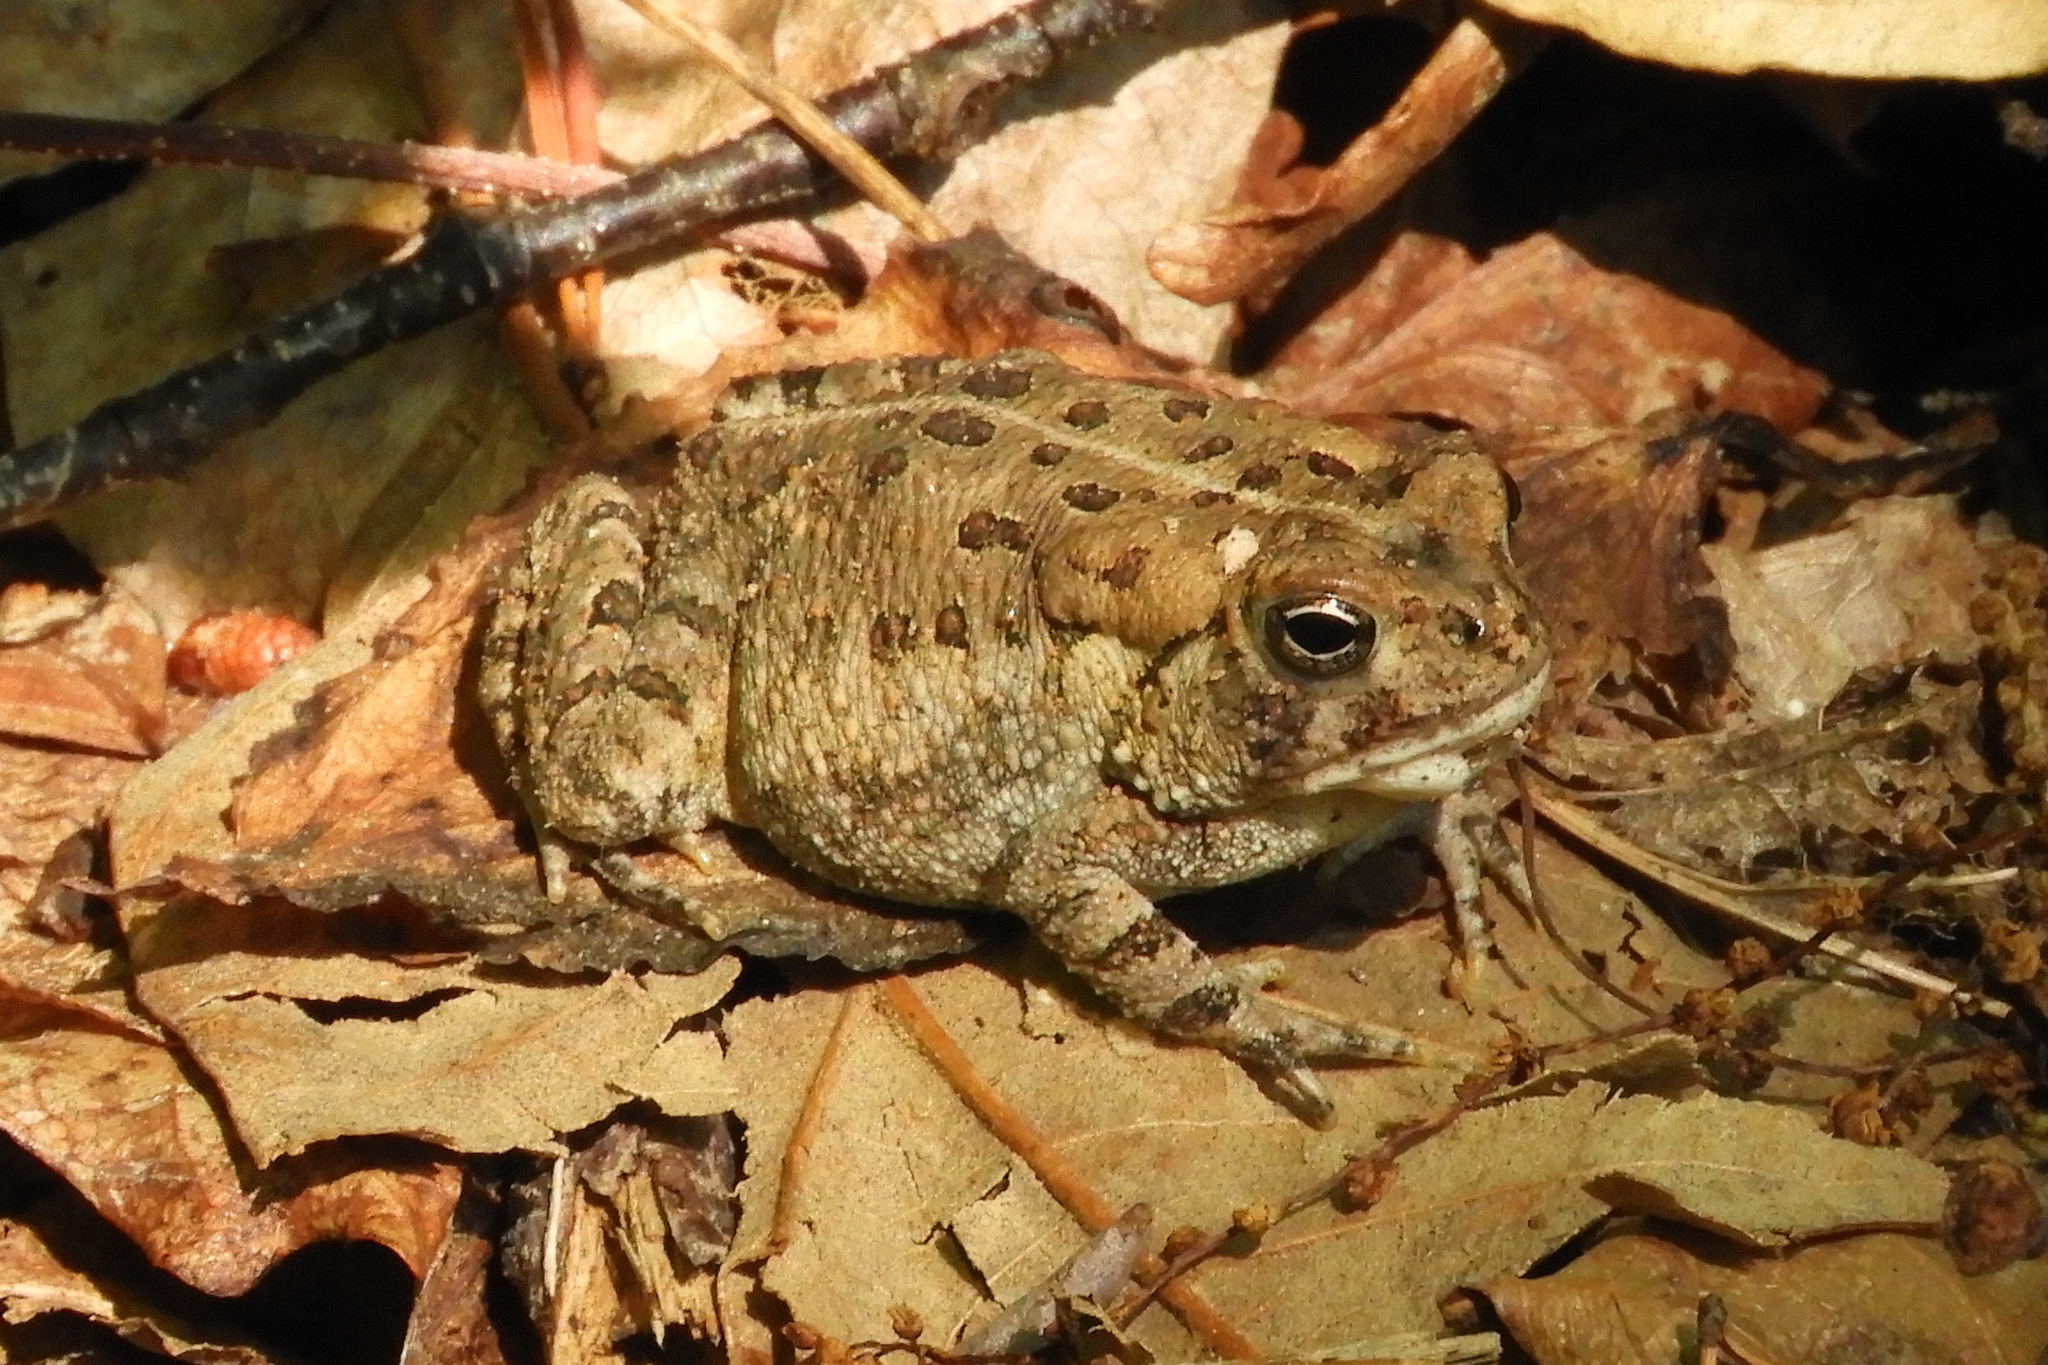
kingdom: Animalia
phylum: Chordata
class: Amphibia
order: Anura
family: Bufonidae
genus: Anaxyrus
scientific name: Anaxyrus fowleri
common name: Fowler's toad
